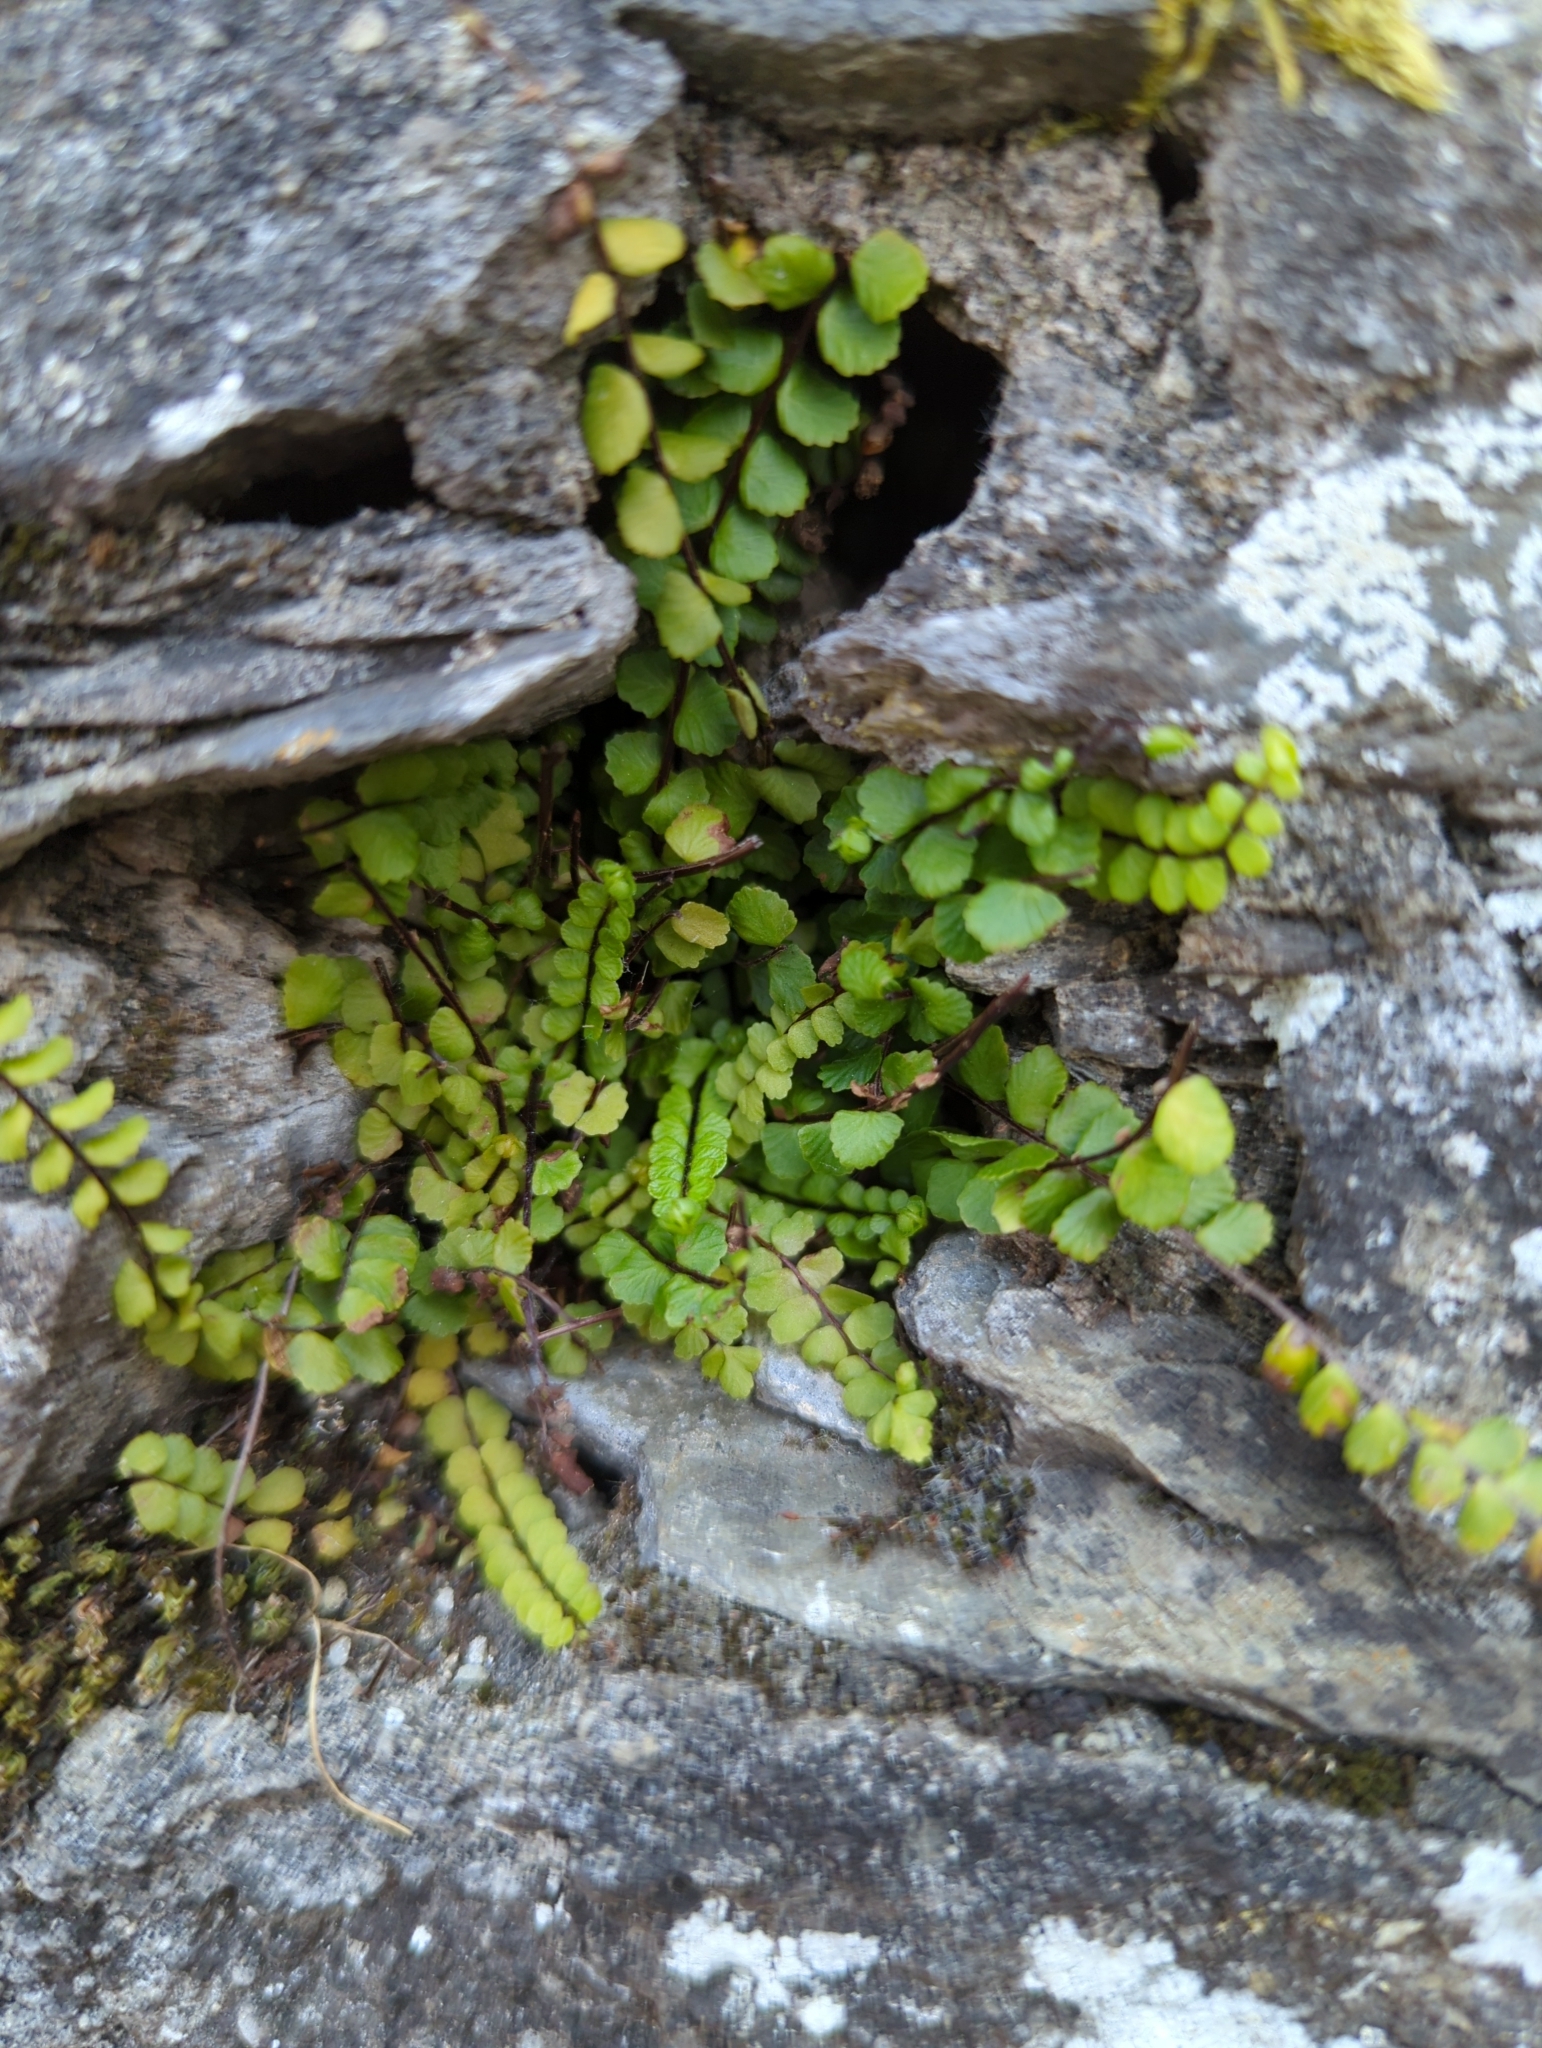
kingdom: Plantae
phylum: Tracheophyta
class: Polypodiopsida
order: Polypodiales
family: Aspleniaceae
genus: Asplenium
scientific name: Asplenium trichomanes
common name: Maidenhair spleenwort
